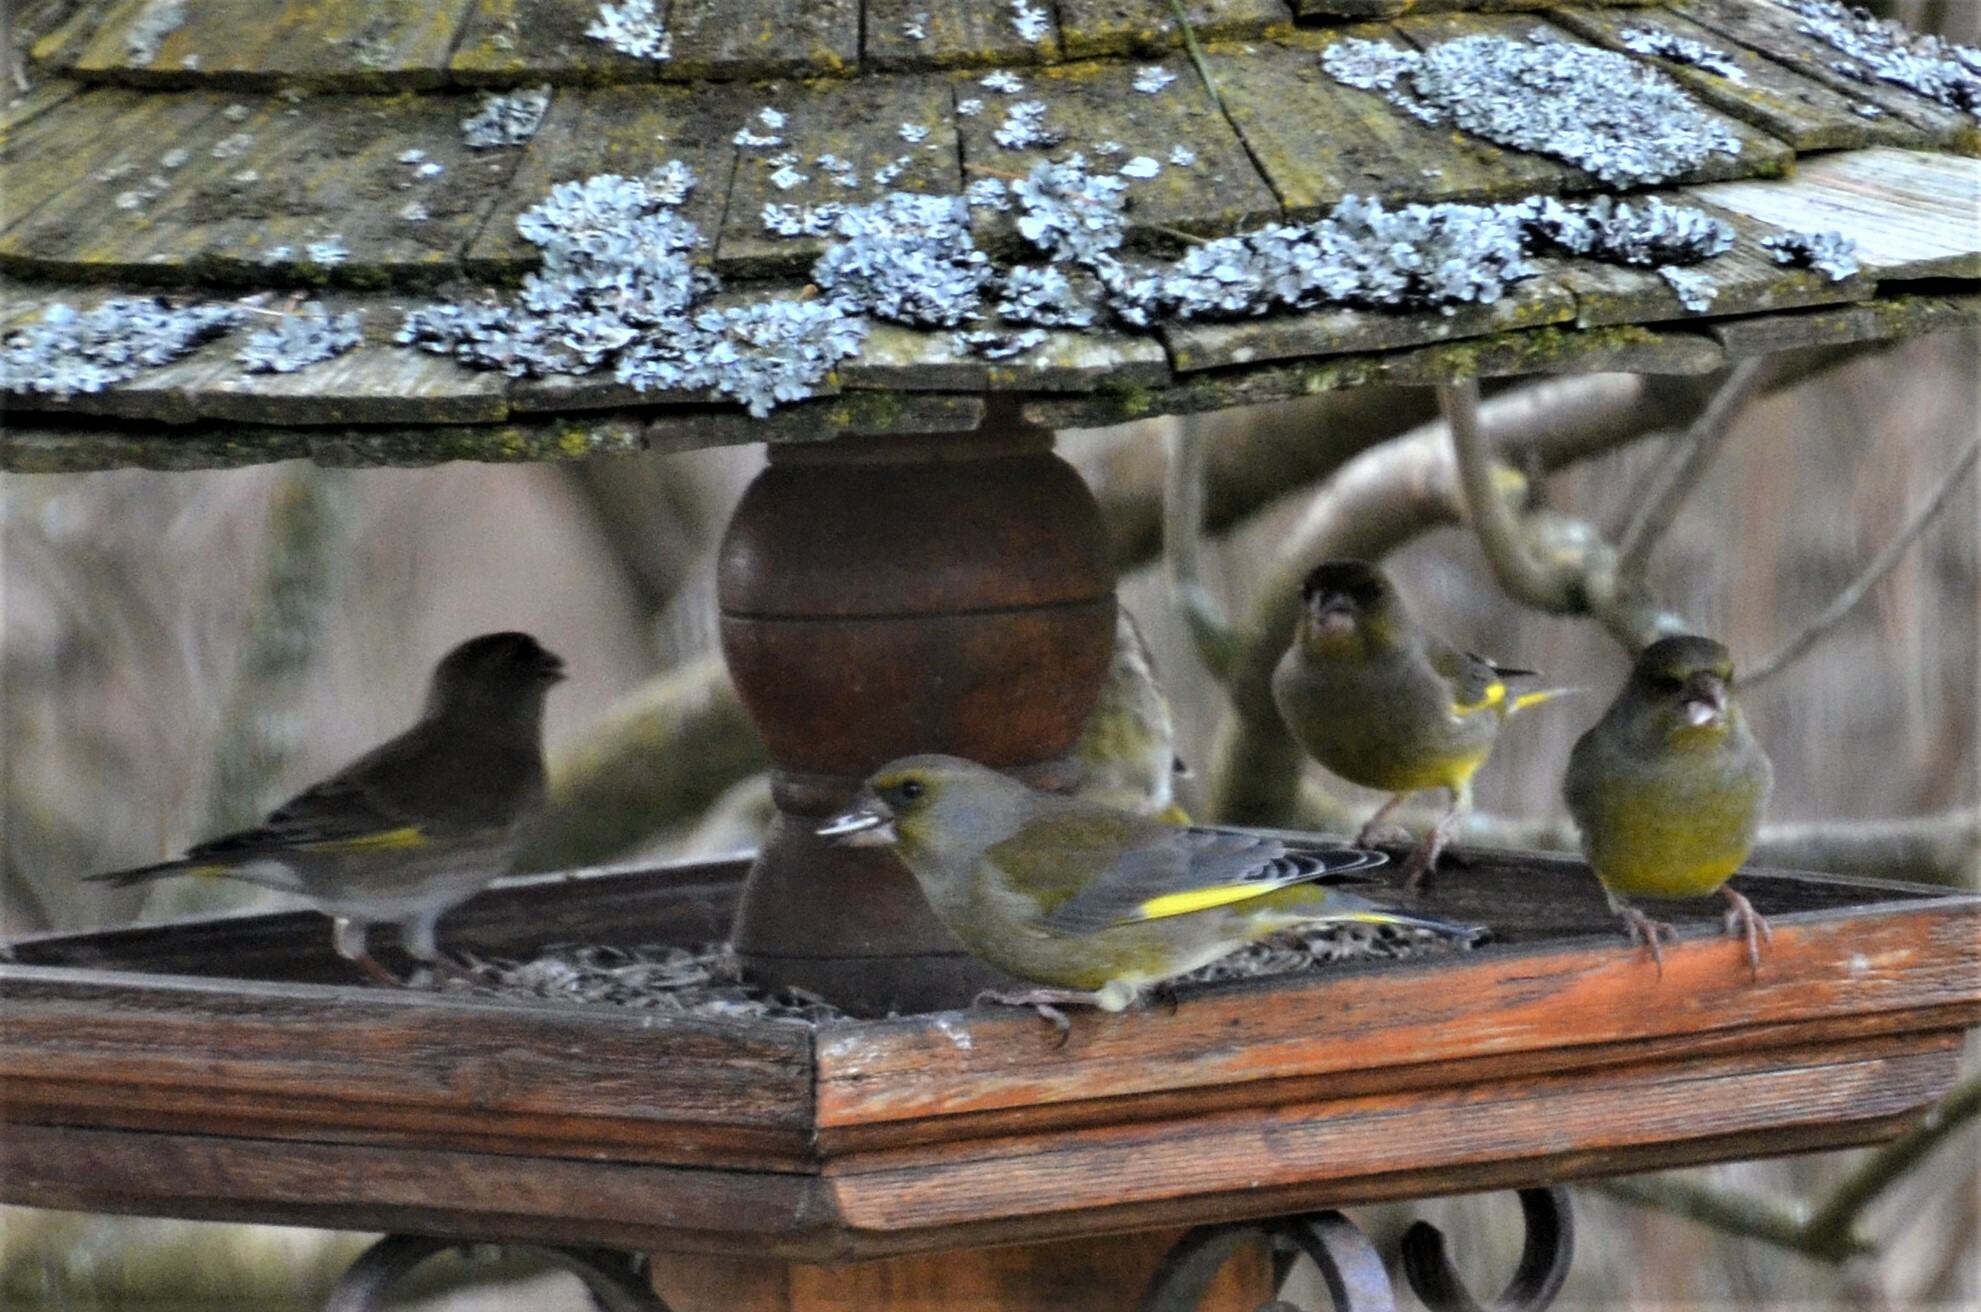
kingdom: Plantae
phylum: Tracheophyta
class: Liliopsida
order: Poales
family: Poaceae
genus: Chloris
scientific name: Chloris chloris
